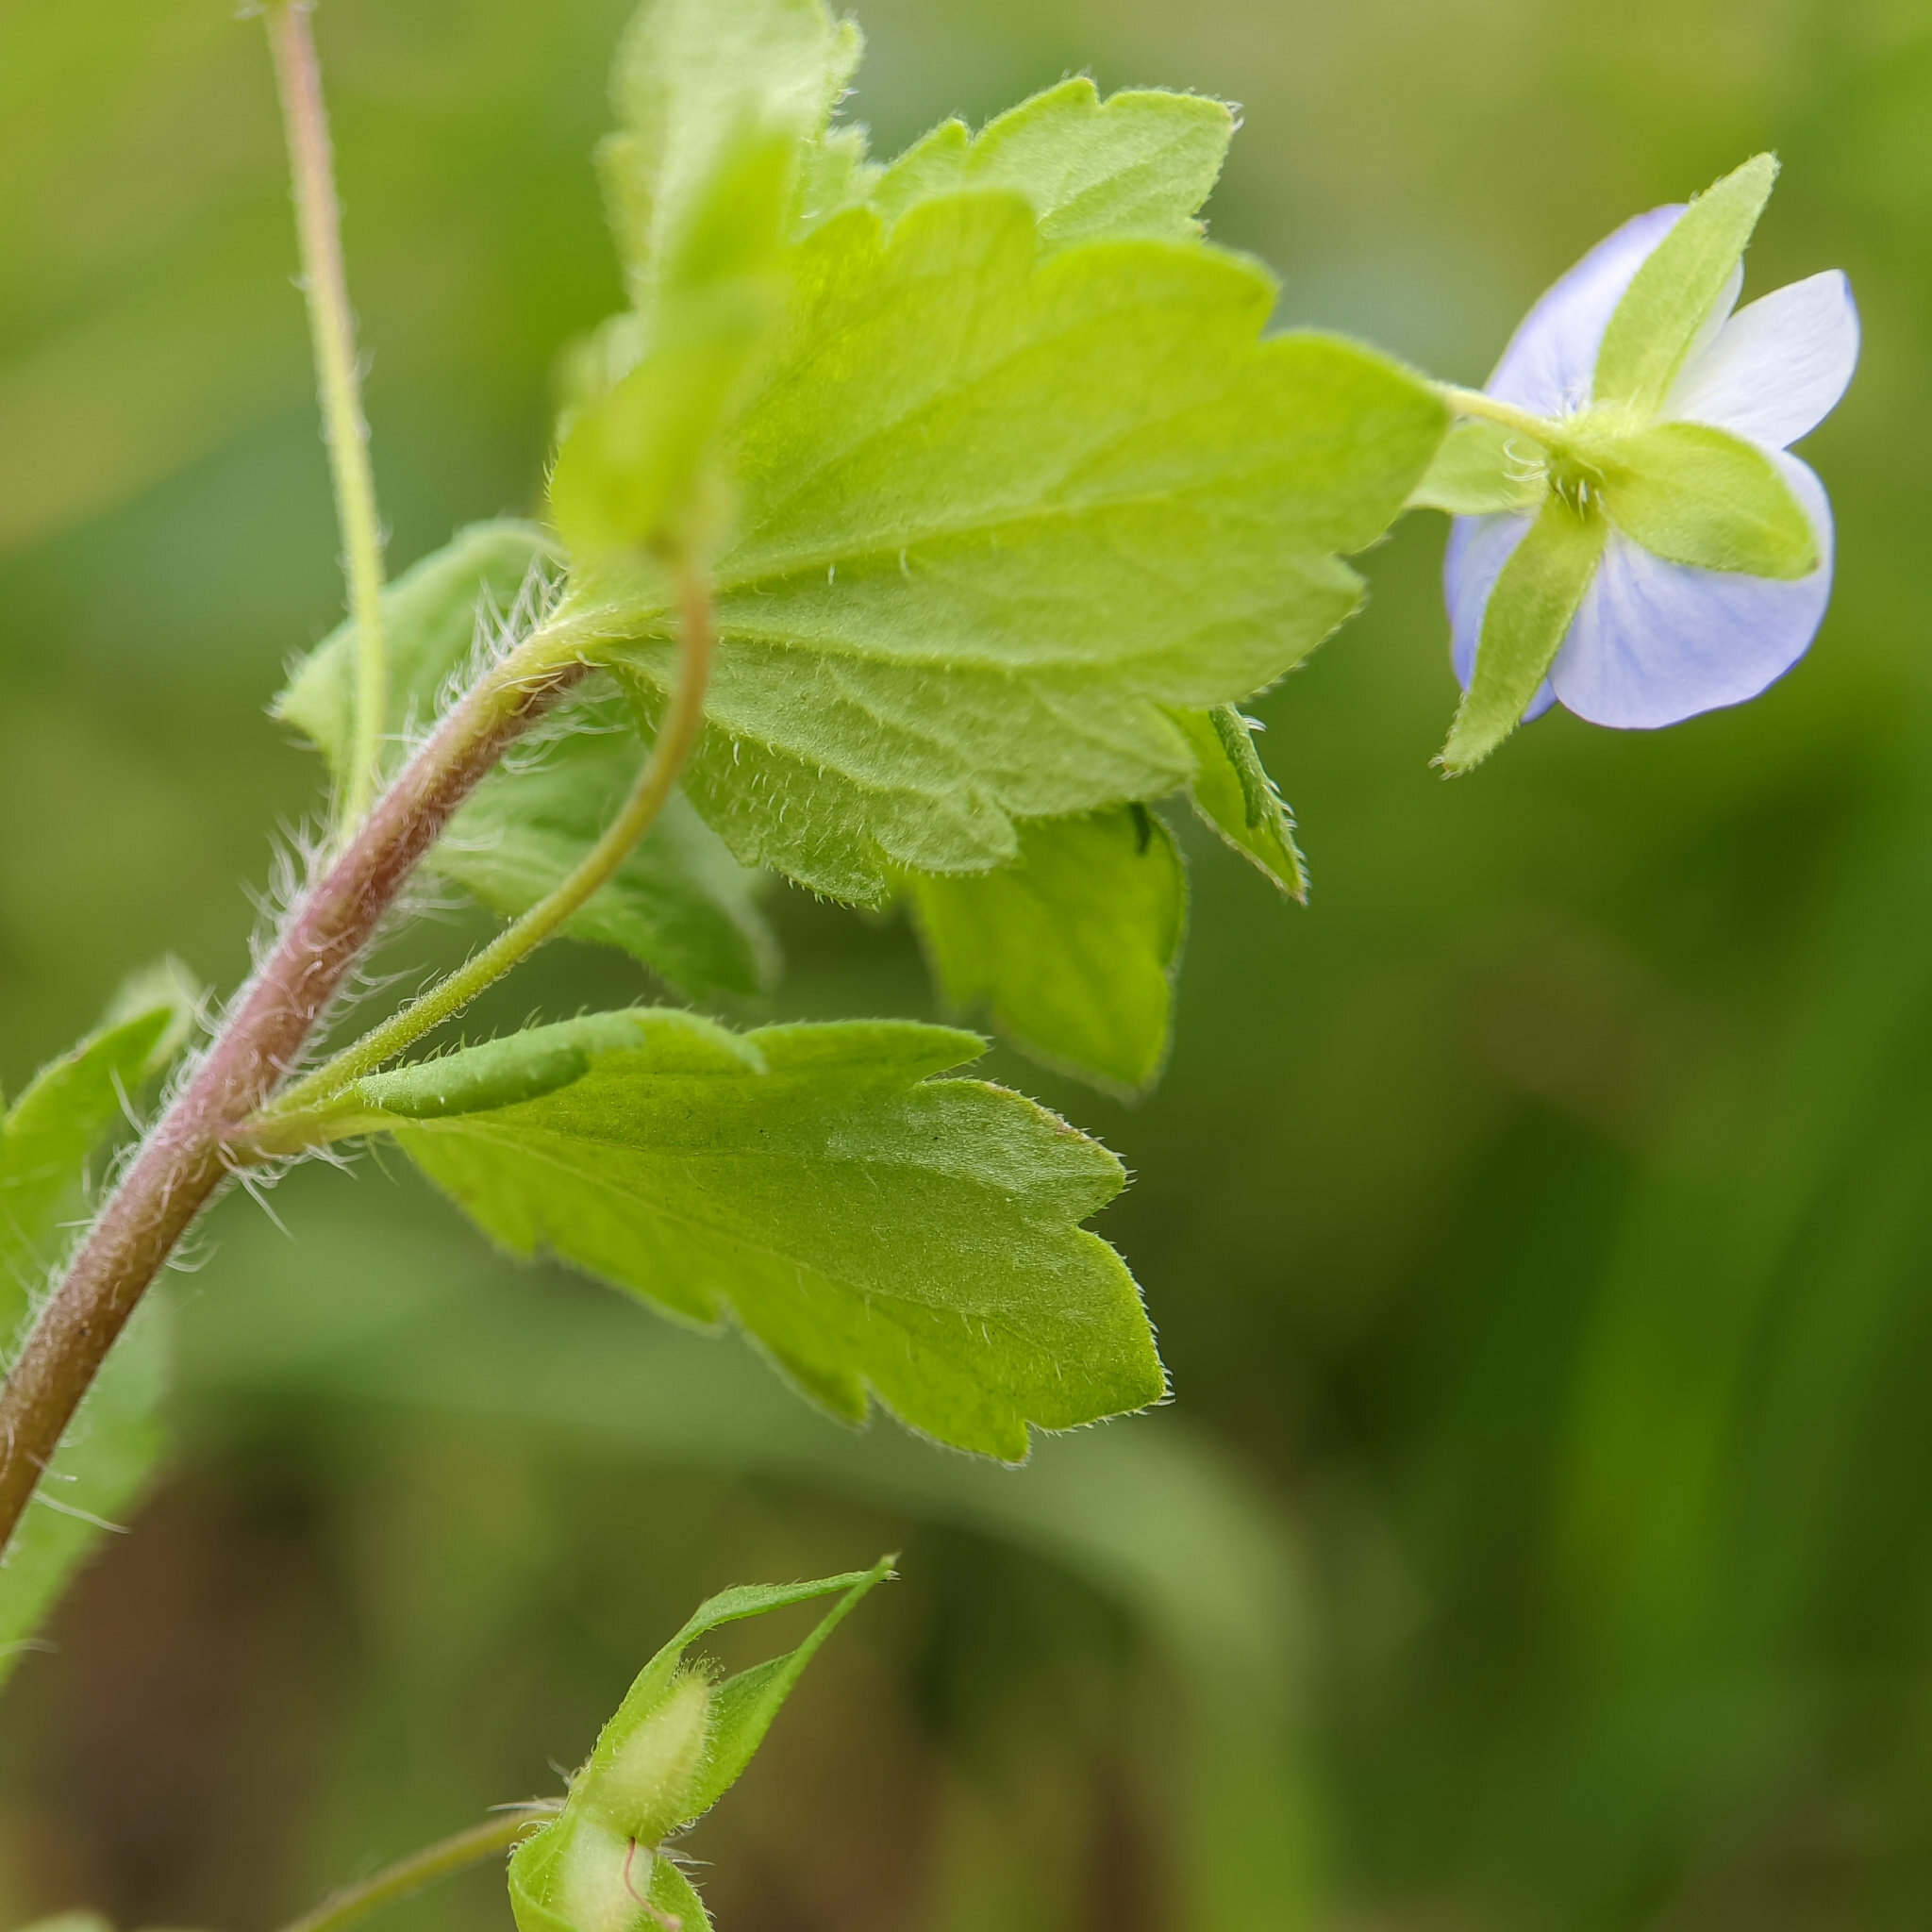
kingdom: Plantae
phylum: Tracheophyta
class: Magnoliopsida
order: Lamiales
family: Plantaginaceae
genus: Veronica
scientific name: Veronica persica
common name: Common field-speedwell
